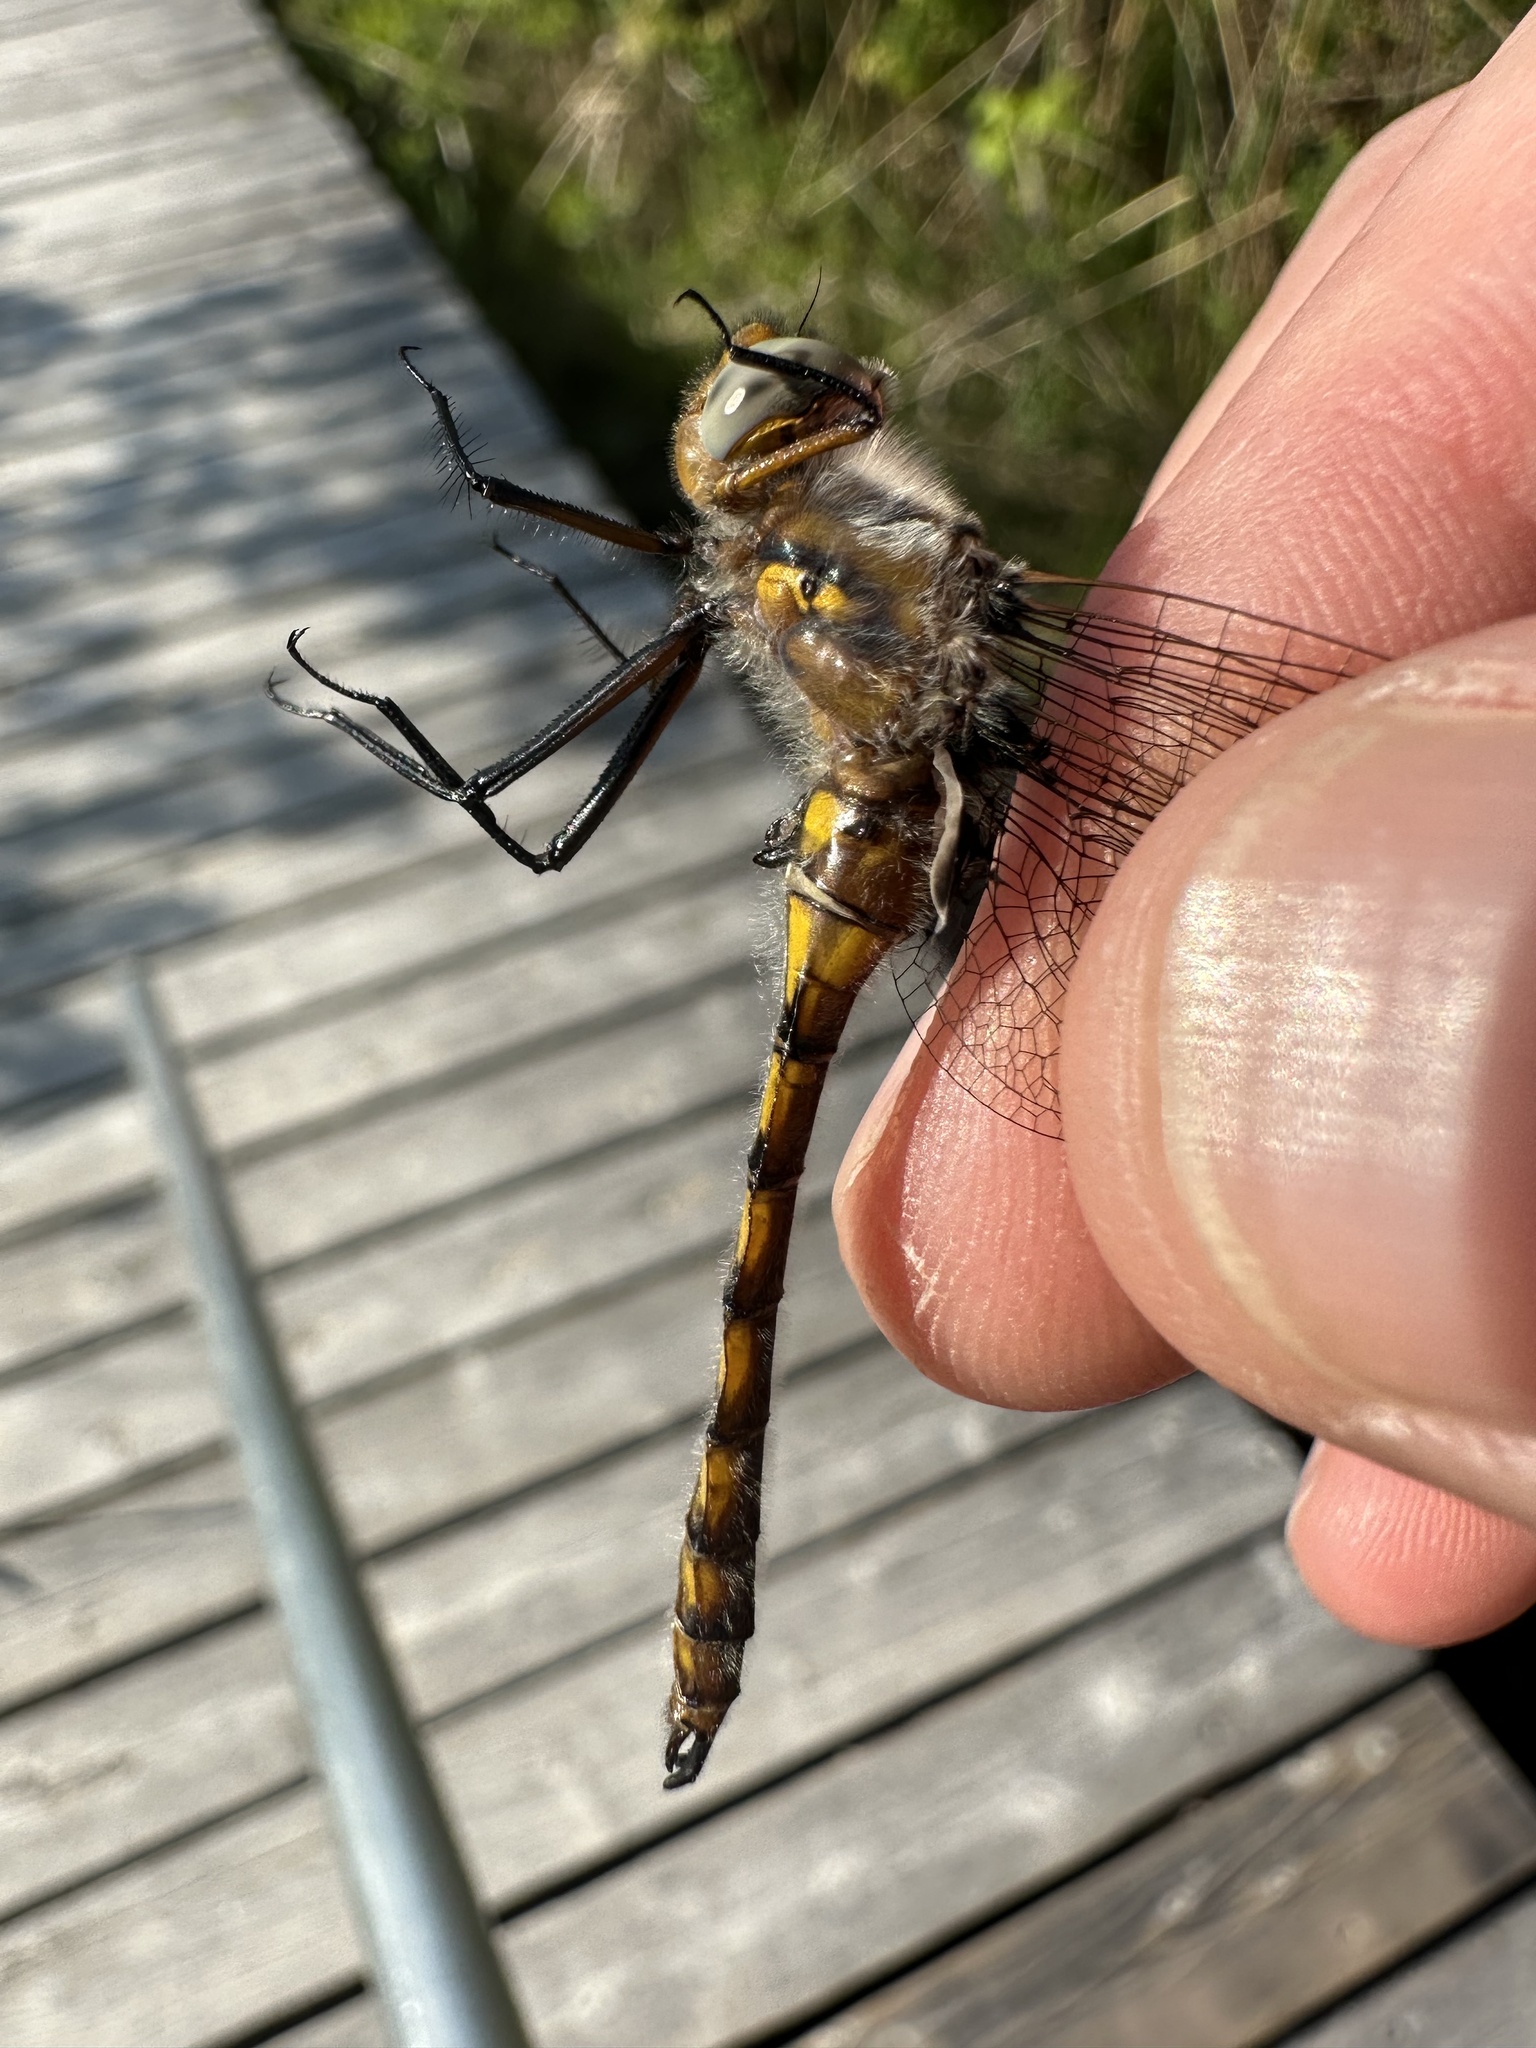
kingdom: Animalia
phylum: Arthropoda
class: Insecta
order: Odonata
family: Corduliidae
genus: Epitheca
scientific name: Epitheca canis
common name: Beaverpond baskettail
